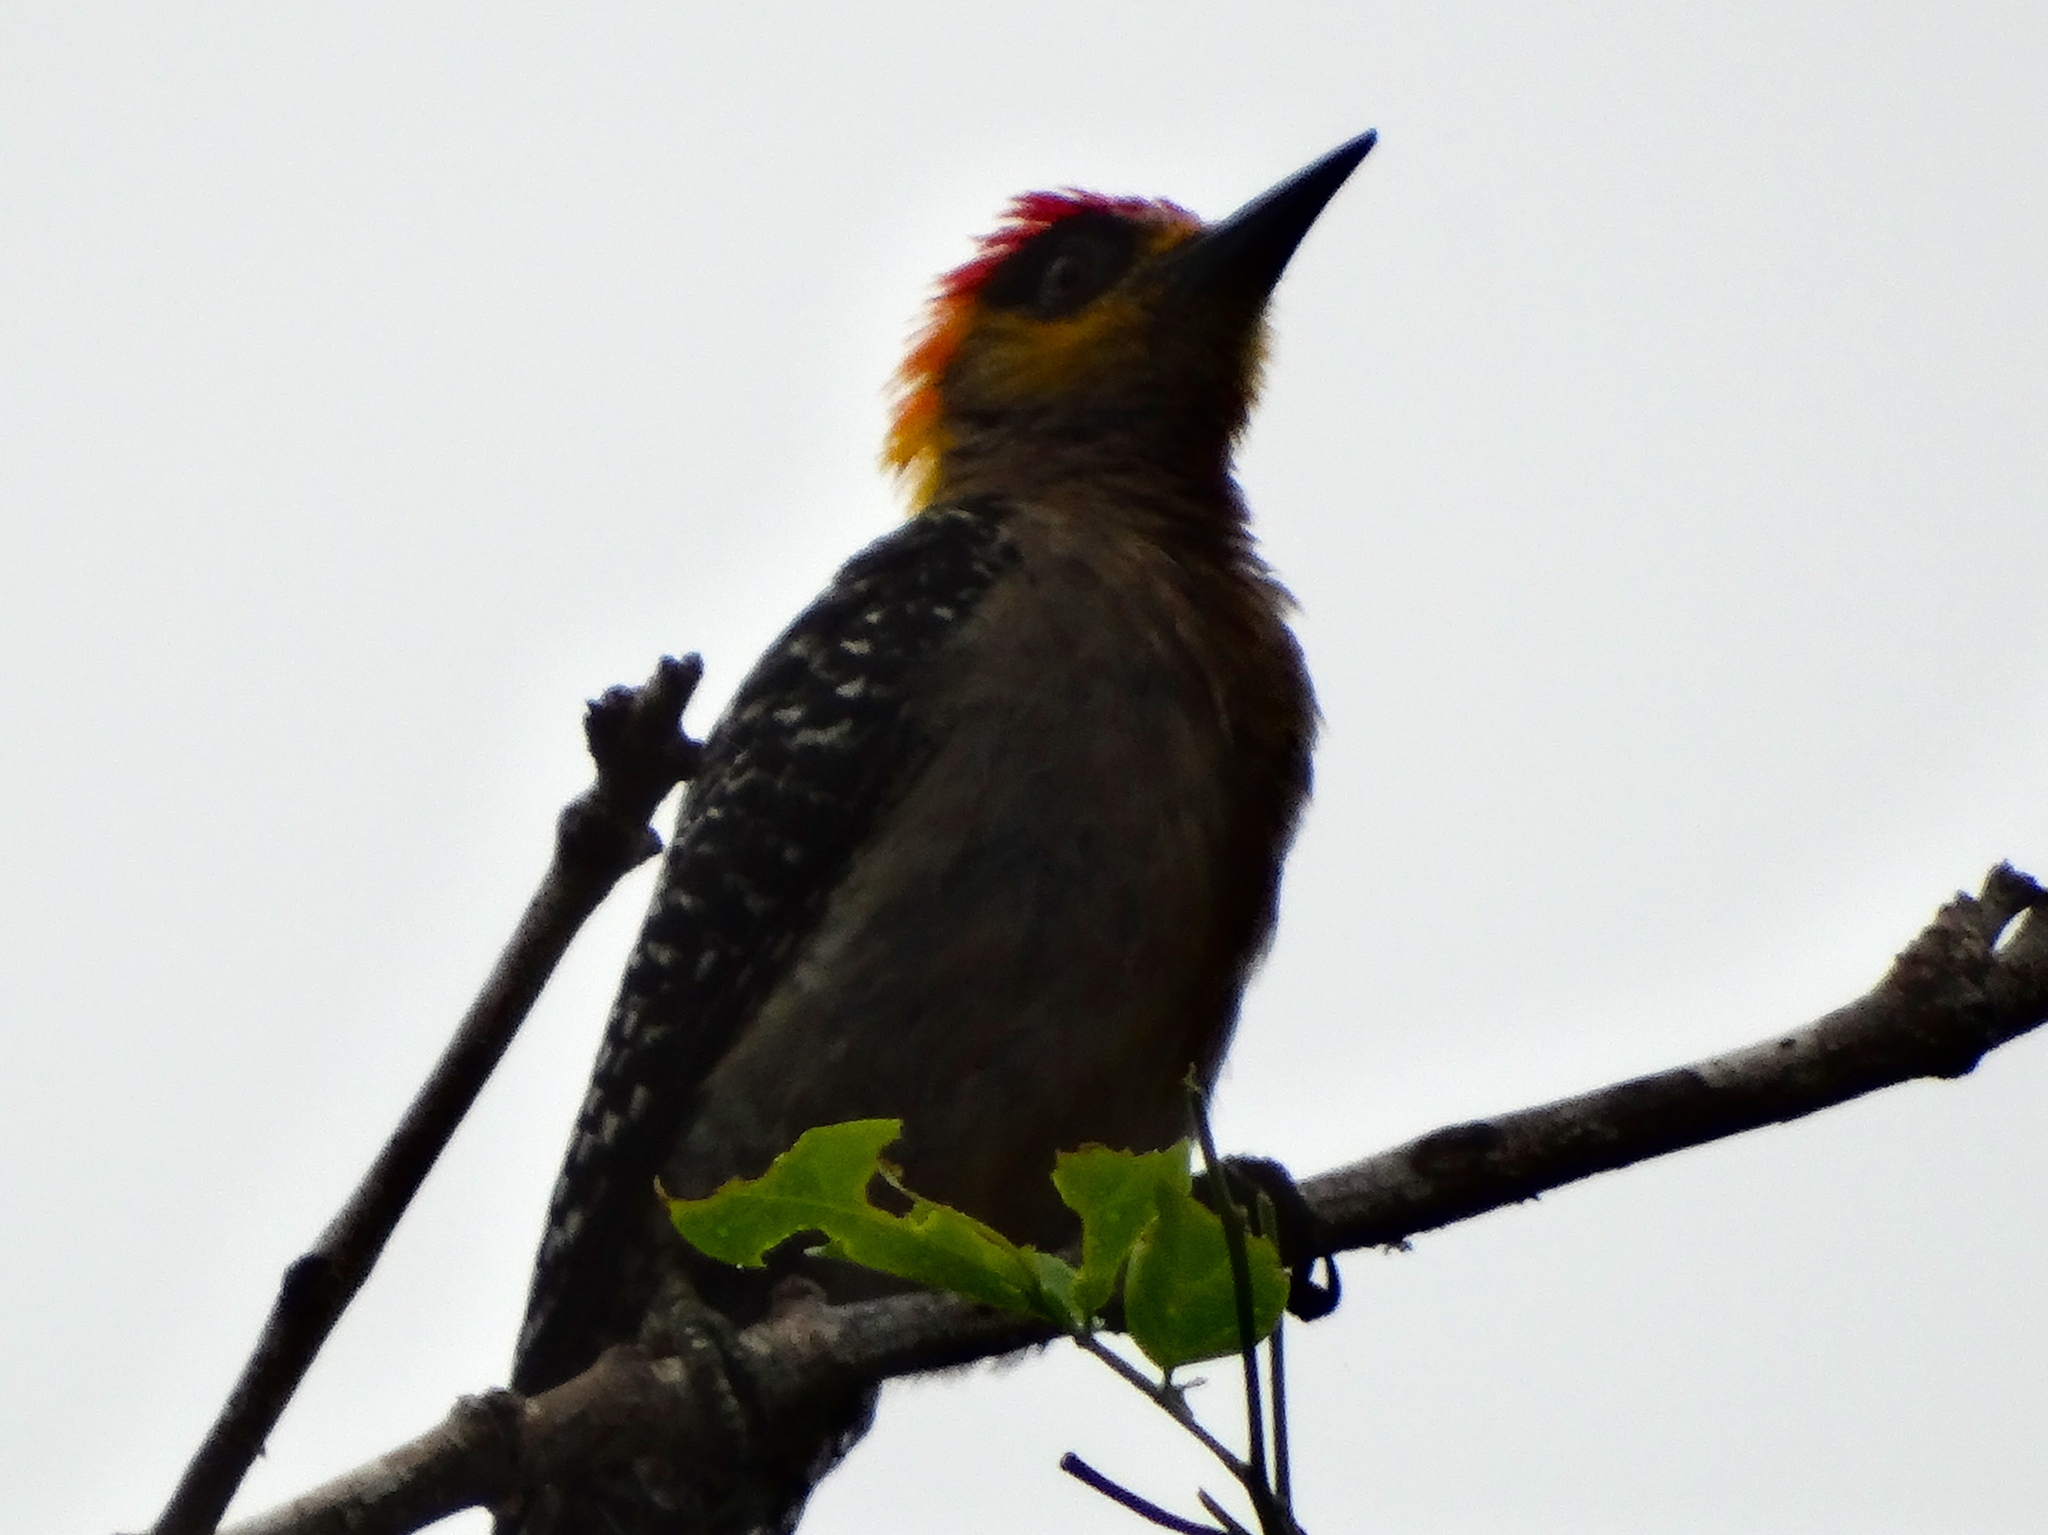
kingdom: Animalia
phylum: Chordata
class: Aves
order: Piciformes
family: Picidae
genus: Melanerpes
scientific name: Melanerpes chrysogenys
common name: Golden-cheeked woodpecker
